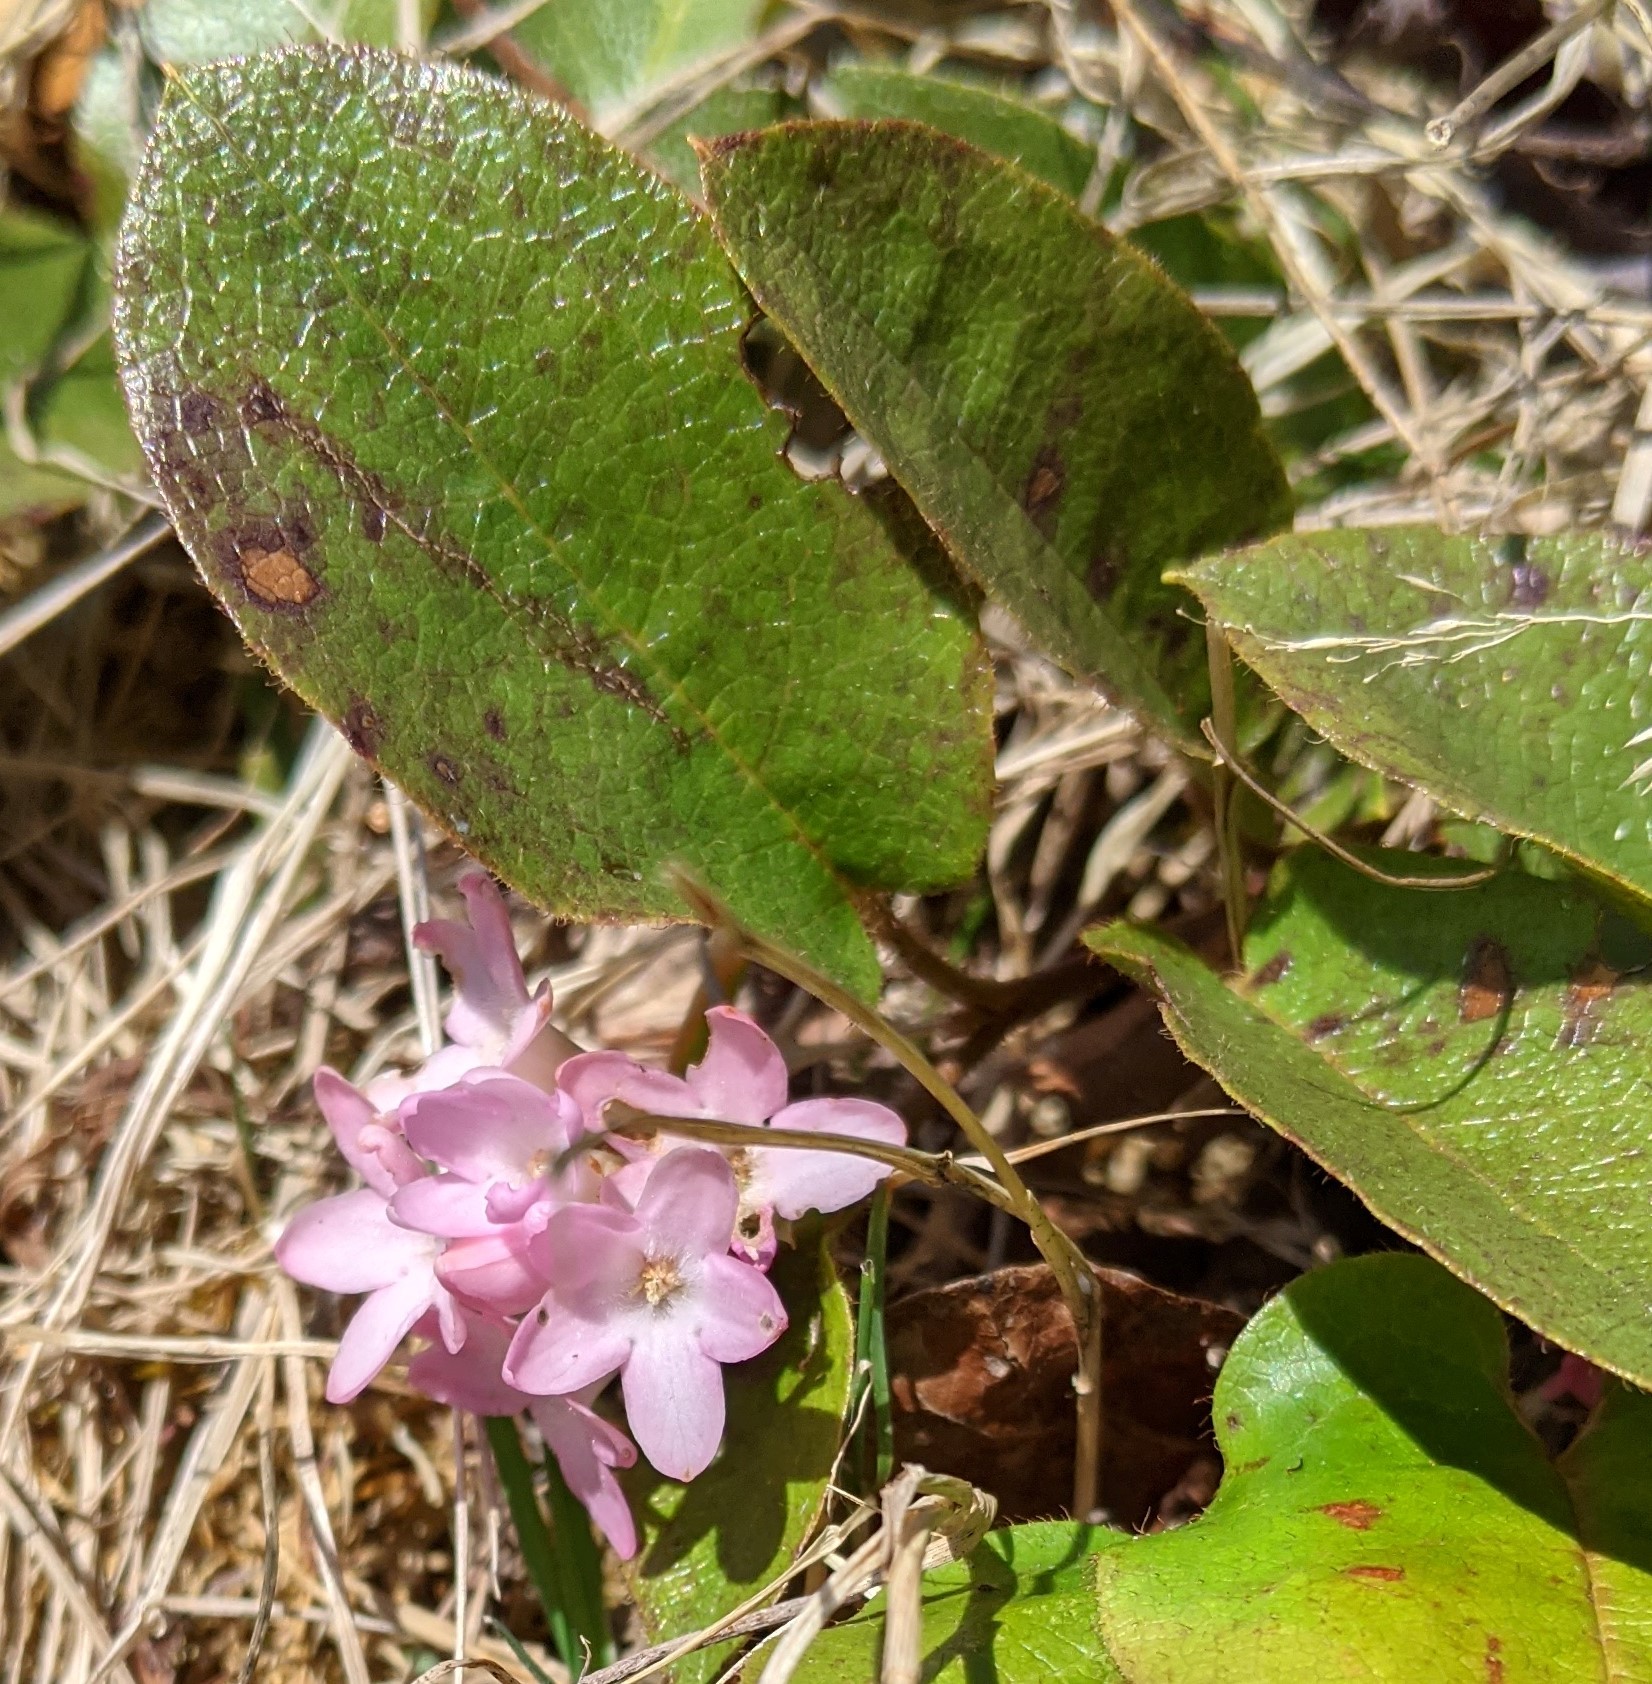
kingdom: Plantae
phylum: Tracheophyta
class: Magnoliopsida
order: Ericales
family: Ericaceae
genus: Epigaea
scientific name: Epigaea repens
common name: Gravelroot
